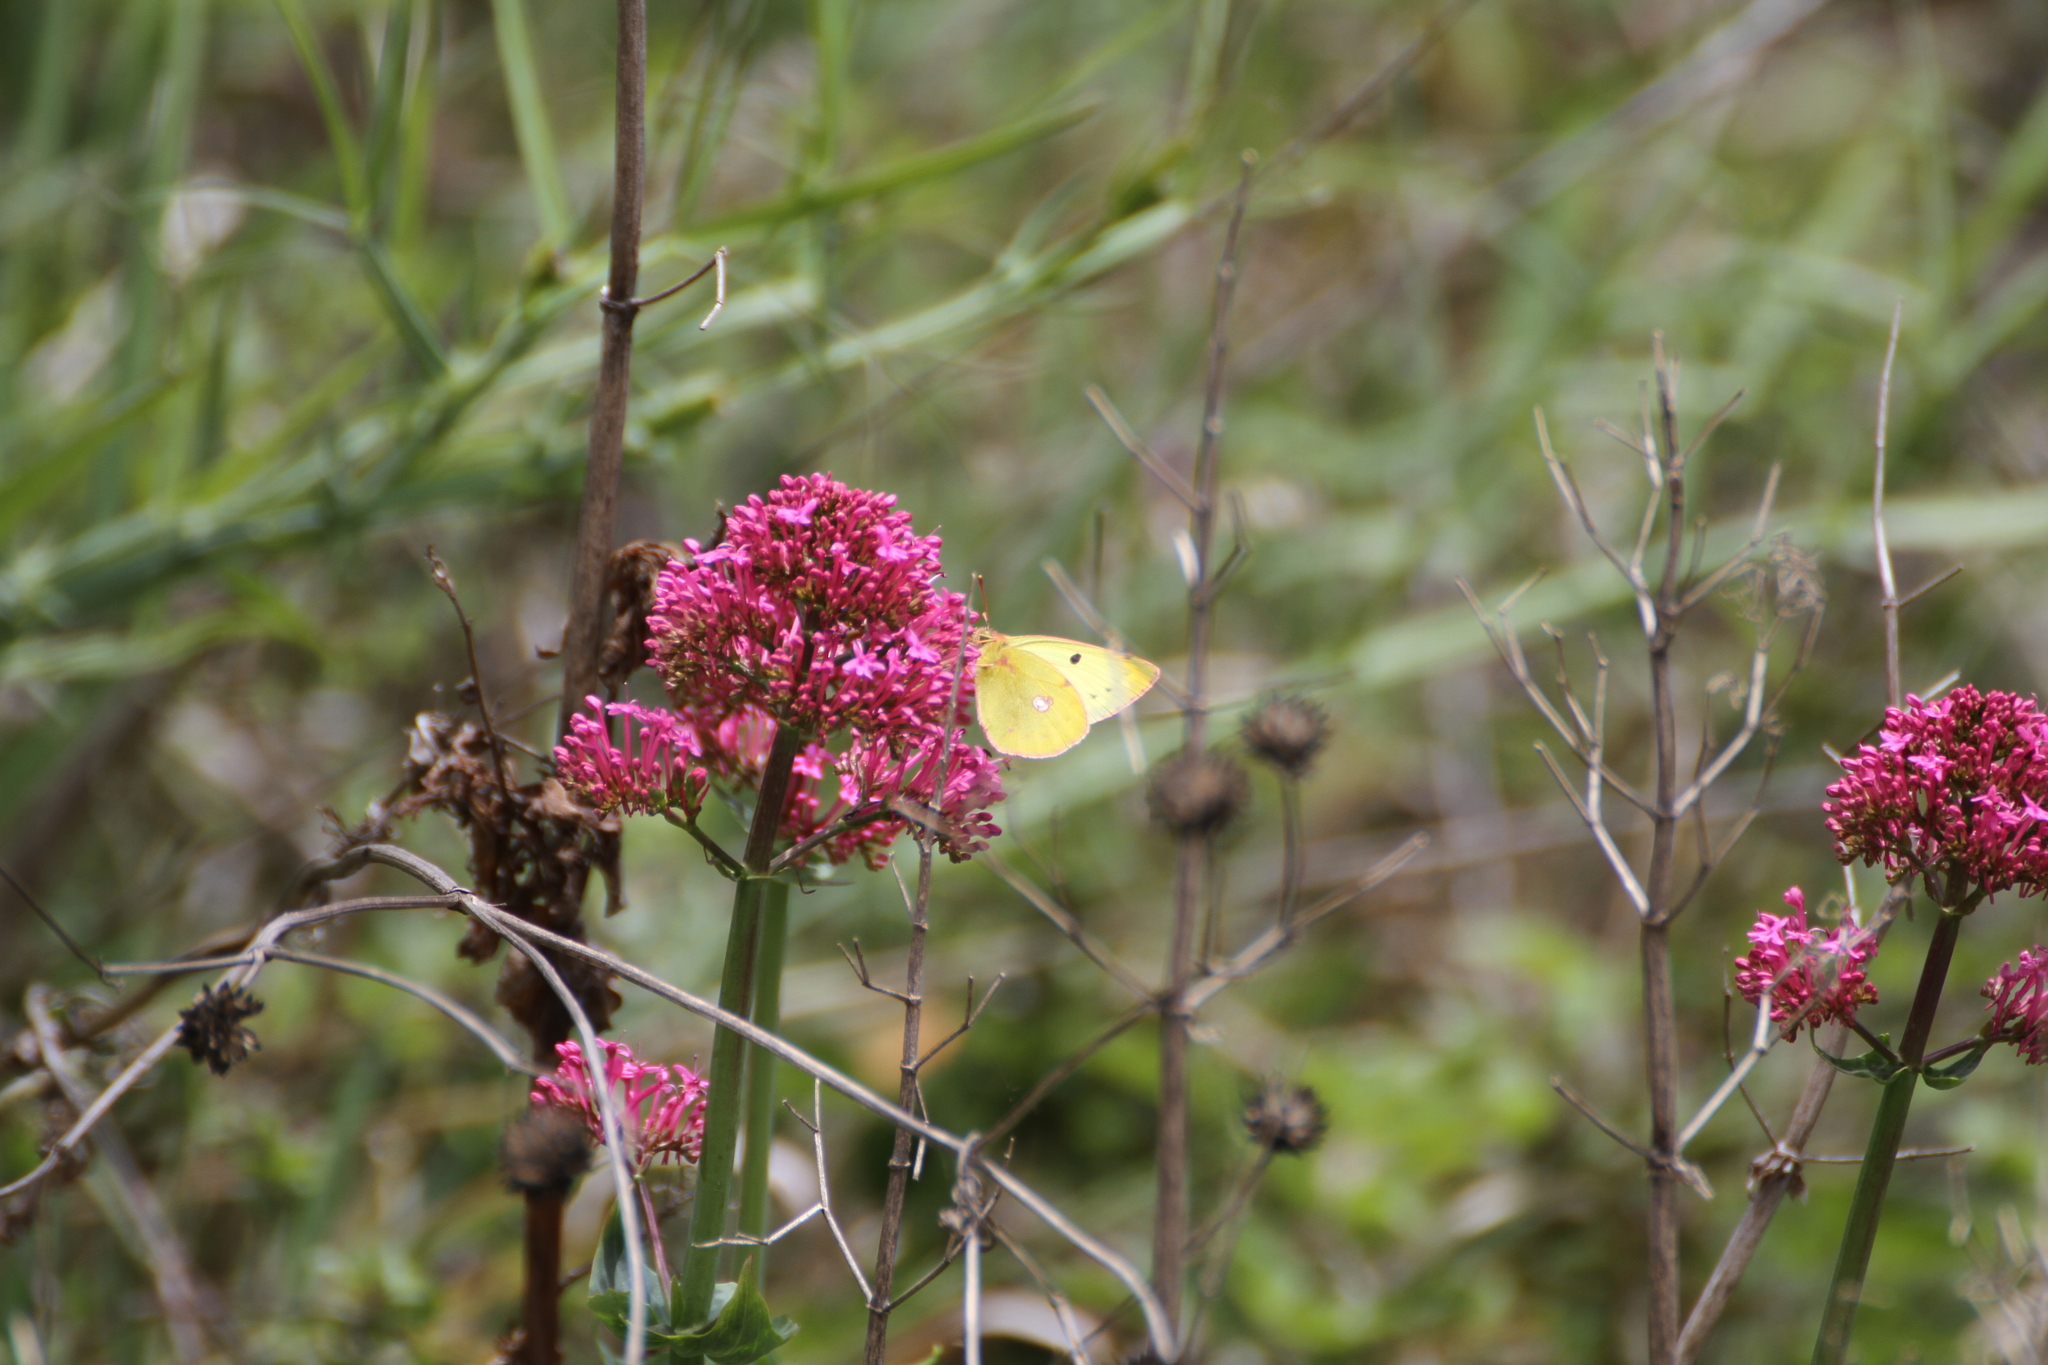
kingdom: Animalia
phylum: Arthropoda
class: Insecta
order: Lepidoptera
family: Pieridae
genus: Colias
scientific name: Colias alfacariensis
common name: Berger's clouded yellow
